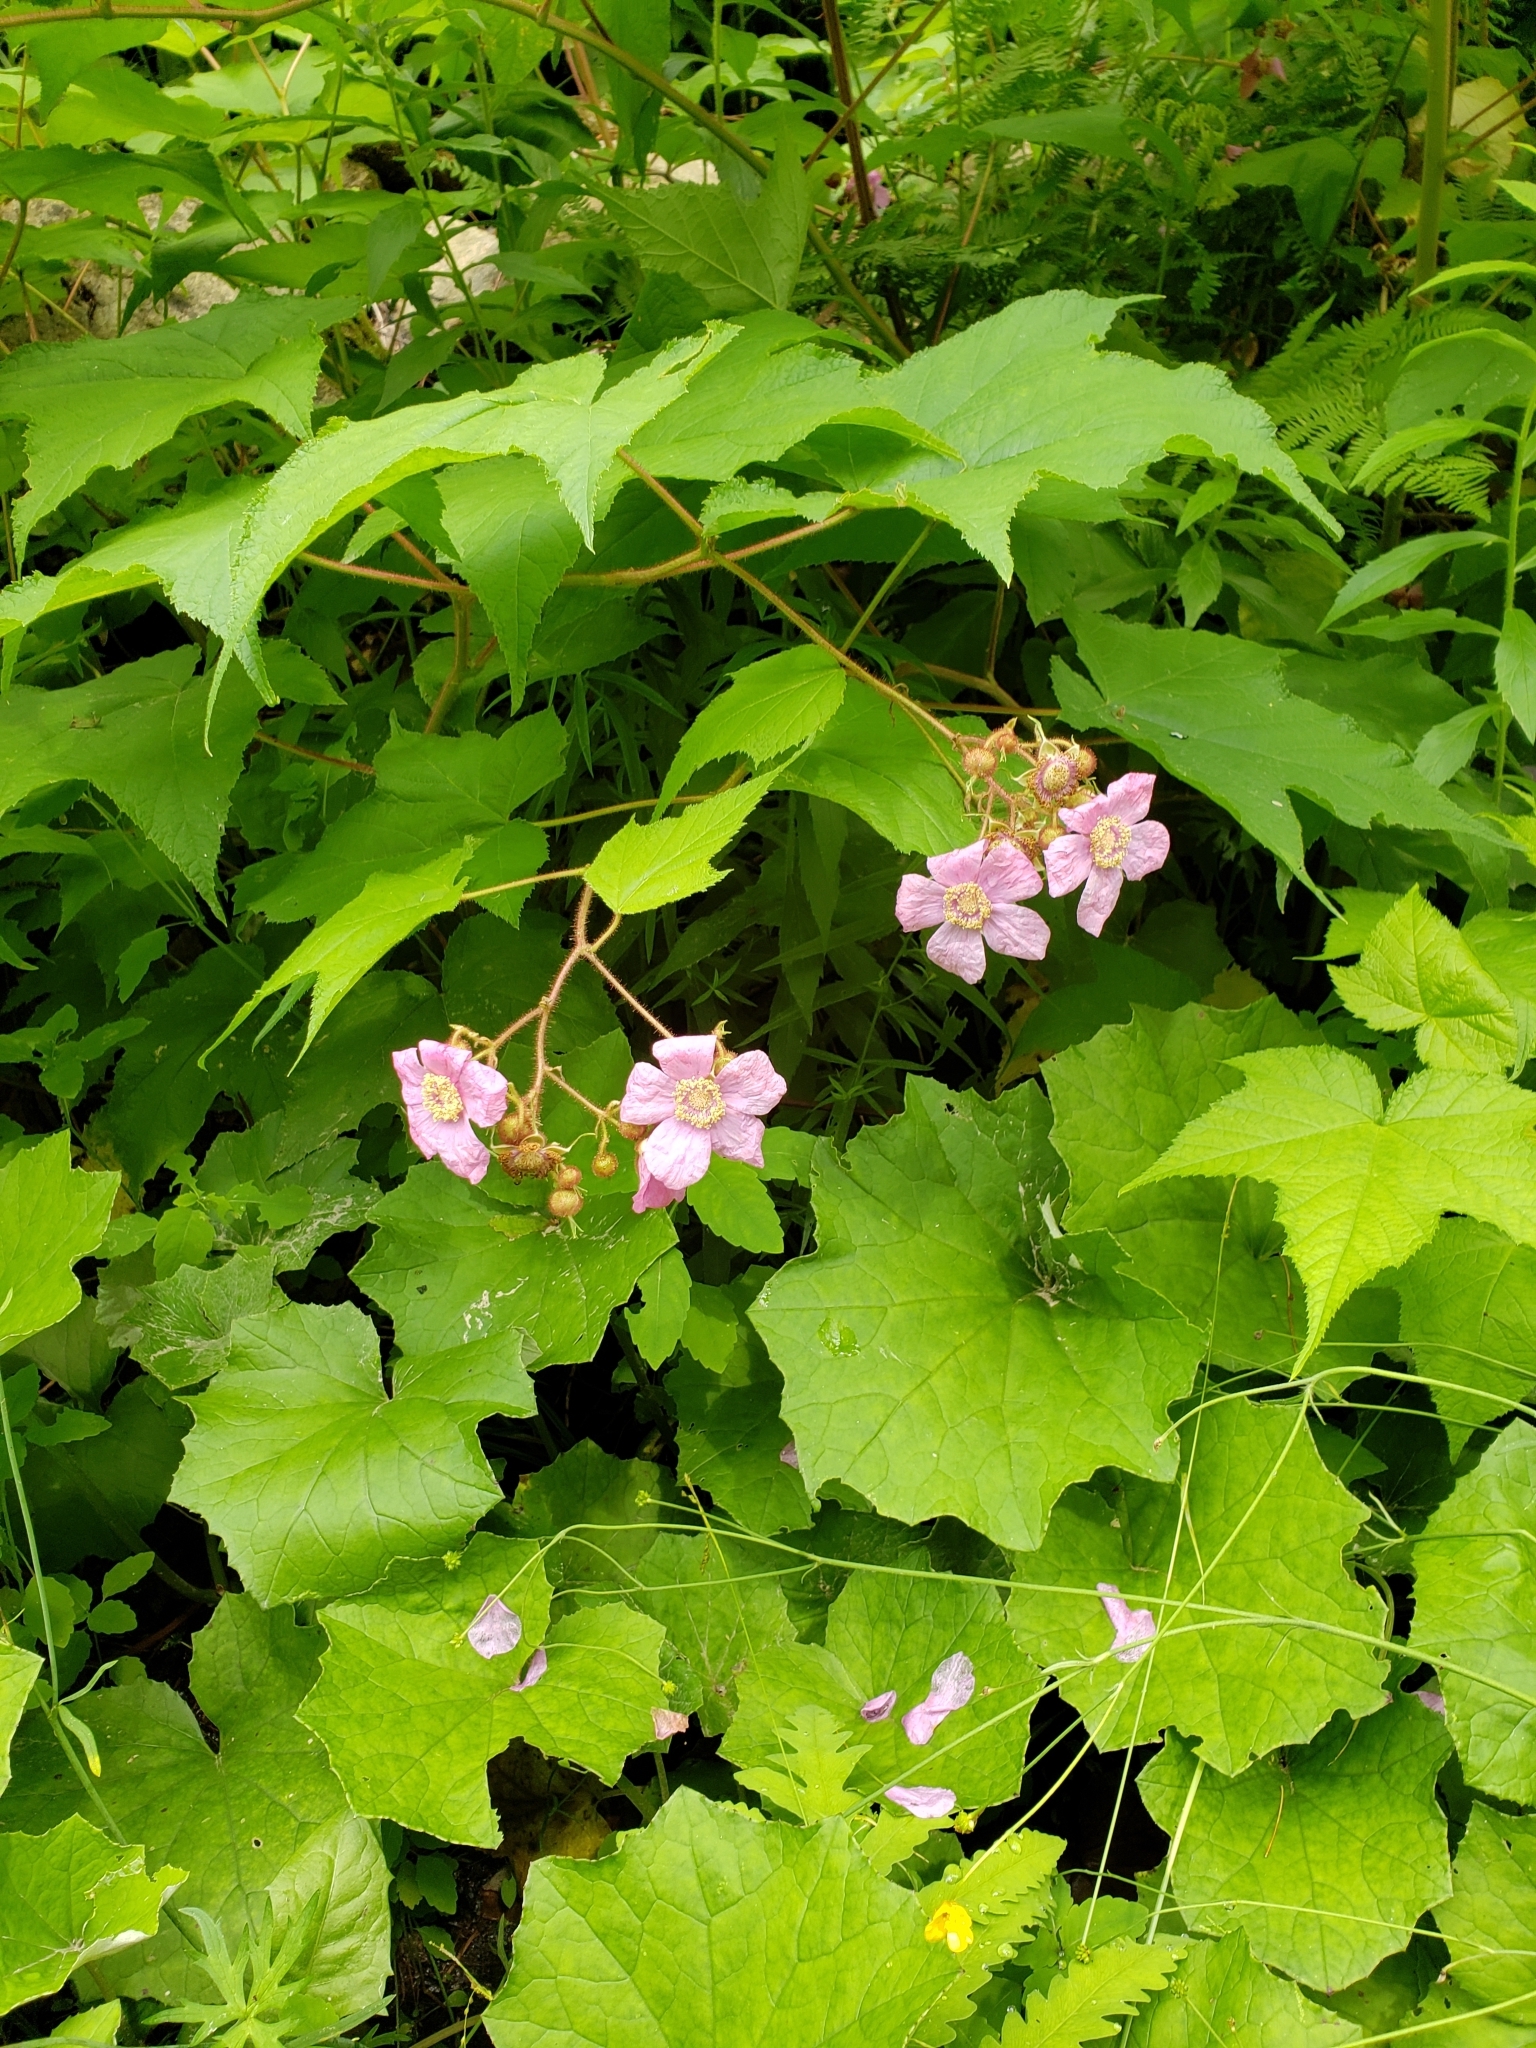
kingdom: Plantae
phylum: Tracheophyta
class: Magnoliopsida
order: Rosales
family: Rosaceae
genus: Rubus
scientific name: Rubus odoratus
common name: Purple-flowered raspberry
